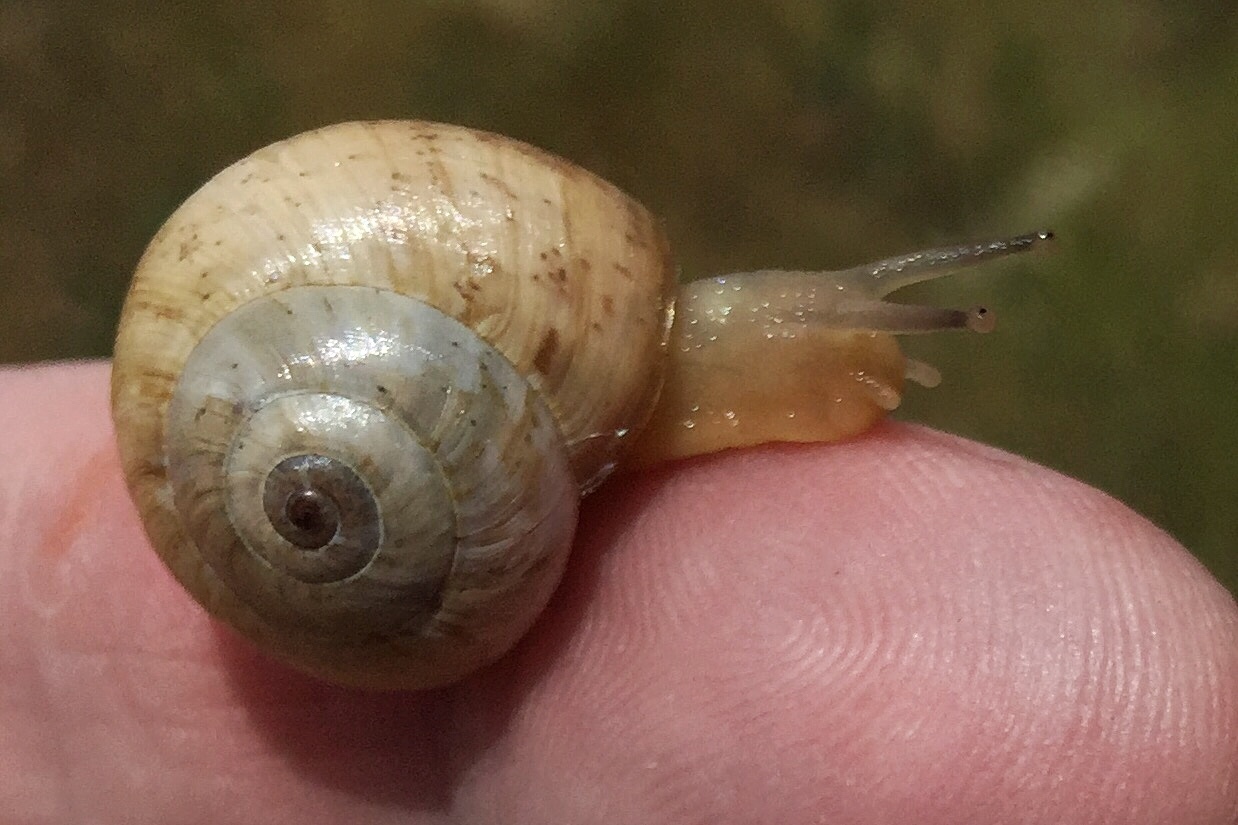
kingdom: Animalia
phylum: Mollusca
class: Gastropoda
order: Stylommatophora
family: Helicidae
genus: Theba
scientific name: Theba pisana
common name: White snail
